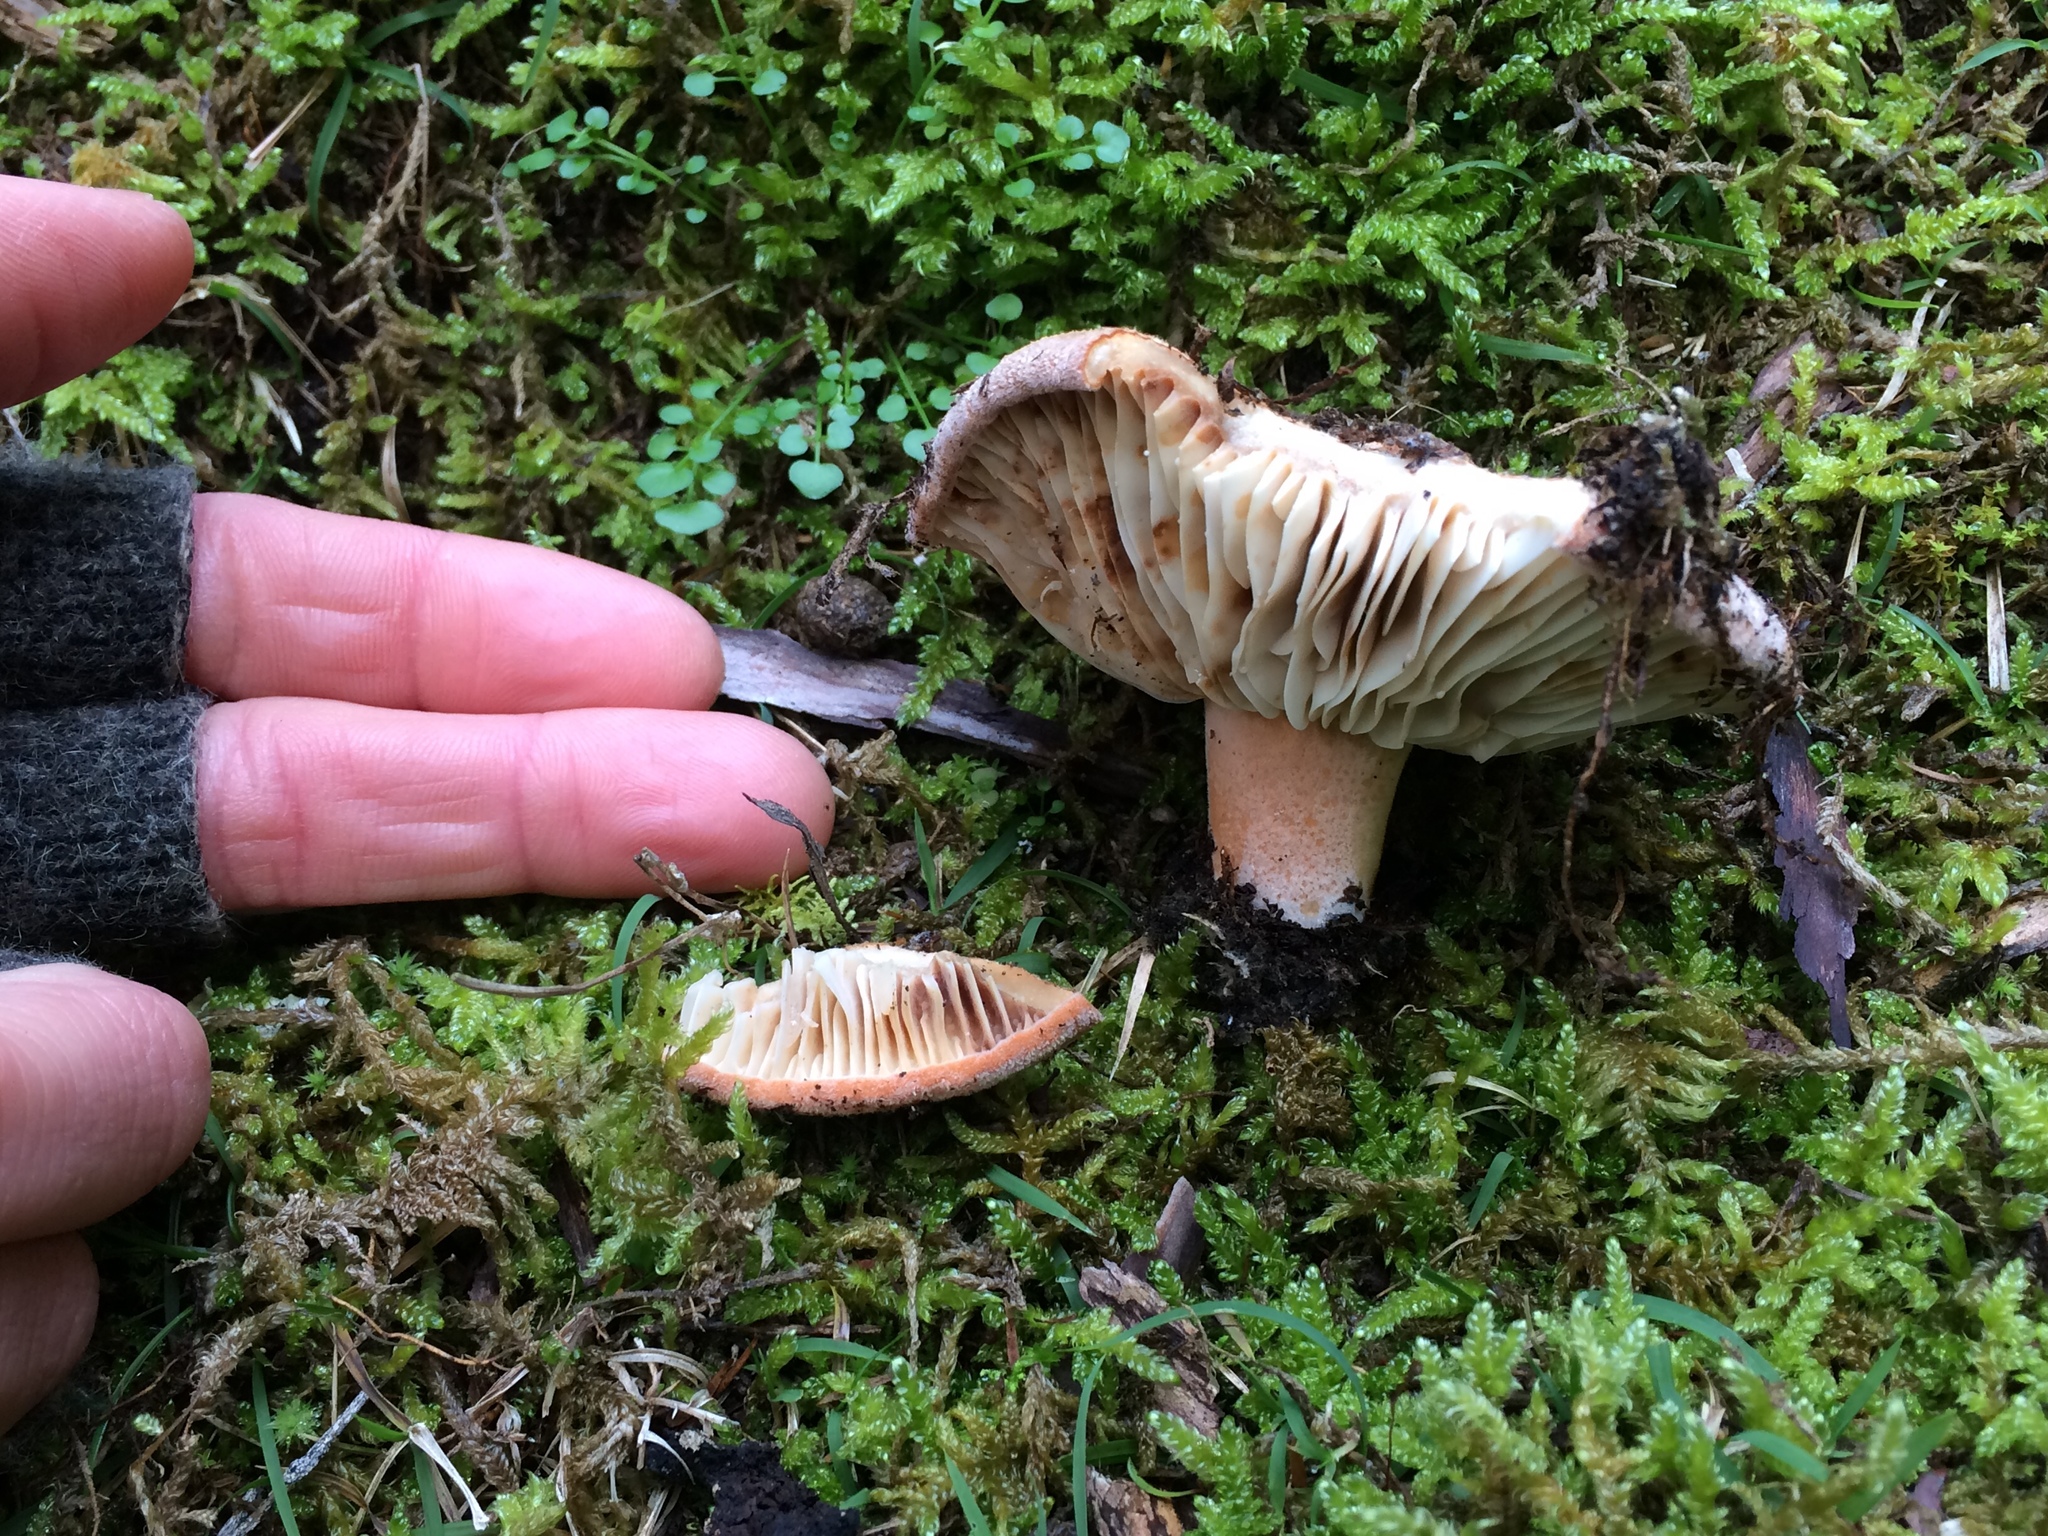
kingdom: Fungi
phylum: Basidiomycota
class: Agaricomycetes
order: Russulales
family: Russulaceae
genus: Lactifluus
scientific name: Lactifluus clarkeae
